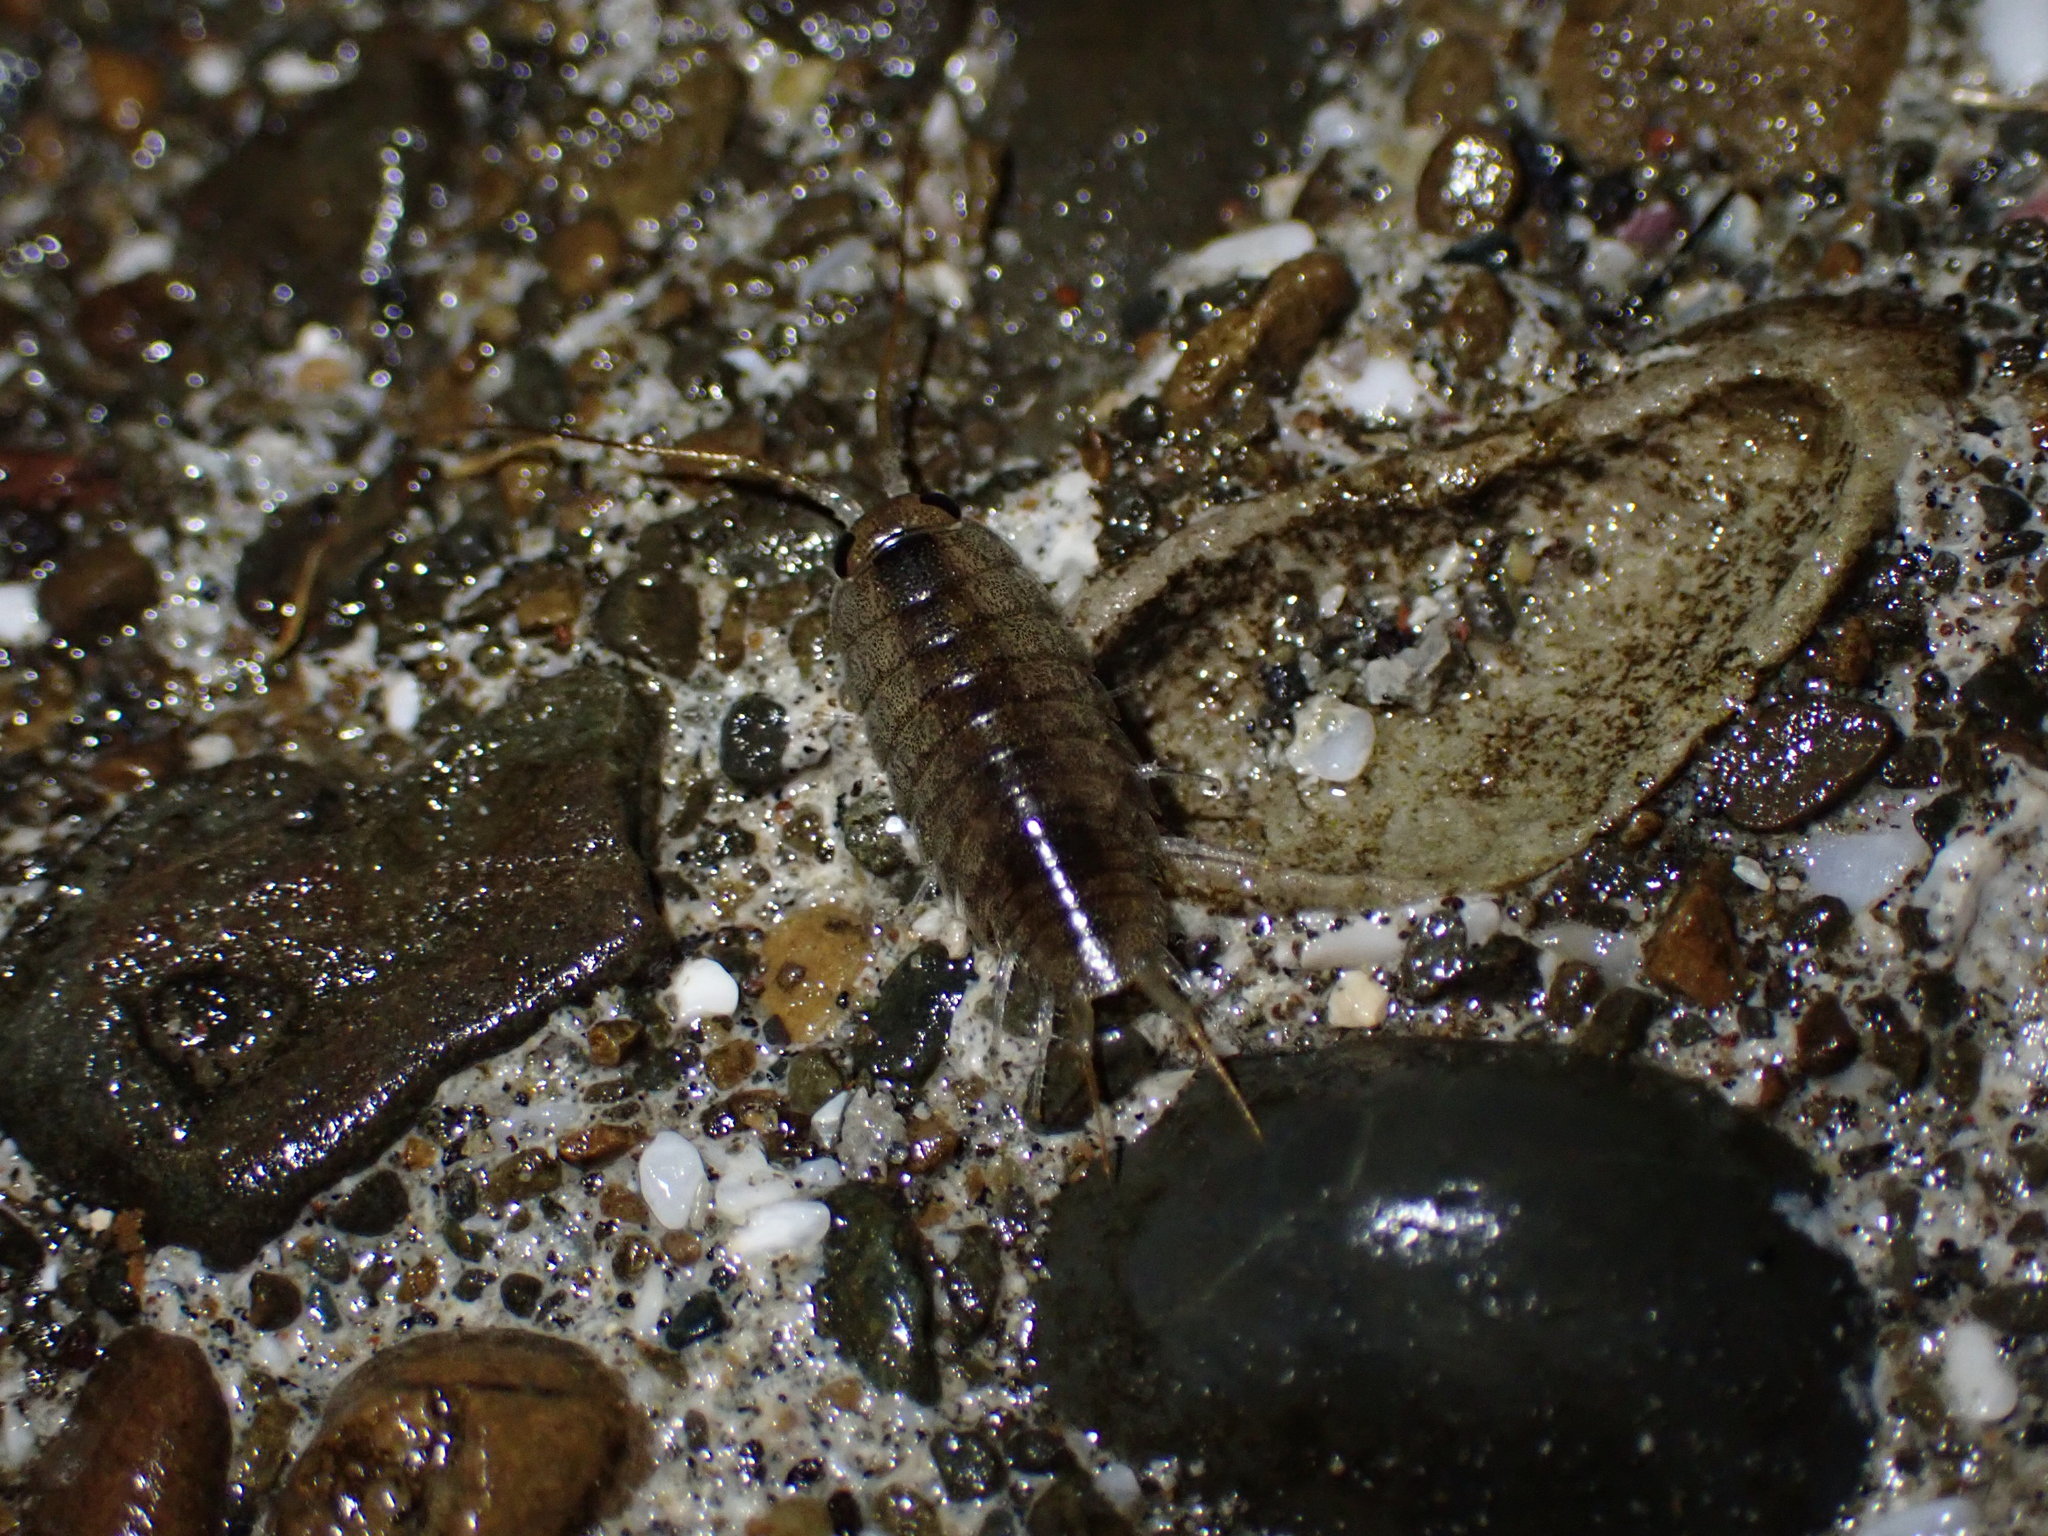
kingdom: Animalia
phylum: Arthropoda
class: Malacostraca
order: Isopoda
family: Ligiidae
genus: Ligia
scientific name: Ligia novizealandiae
